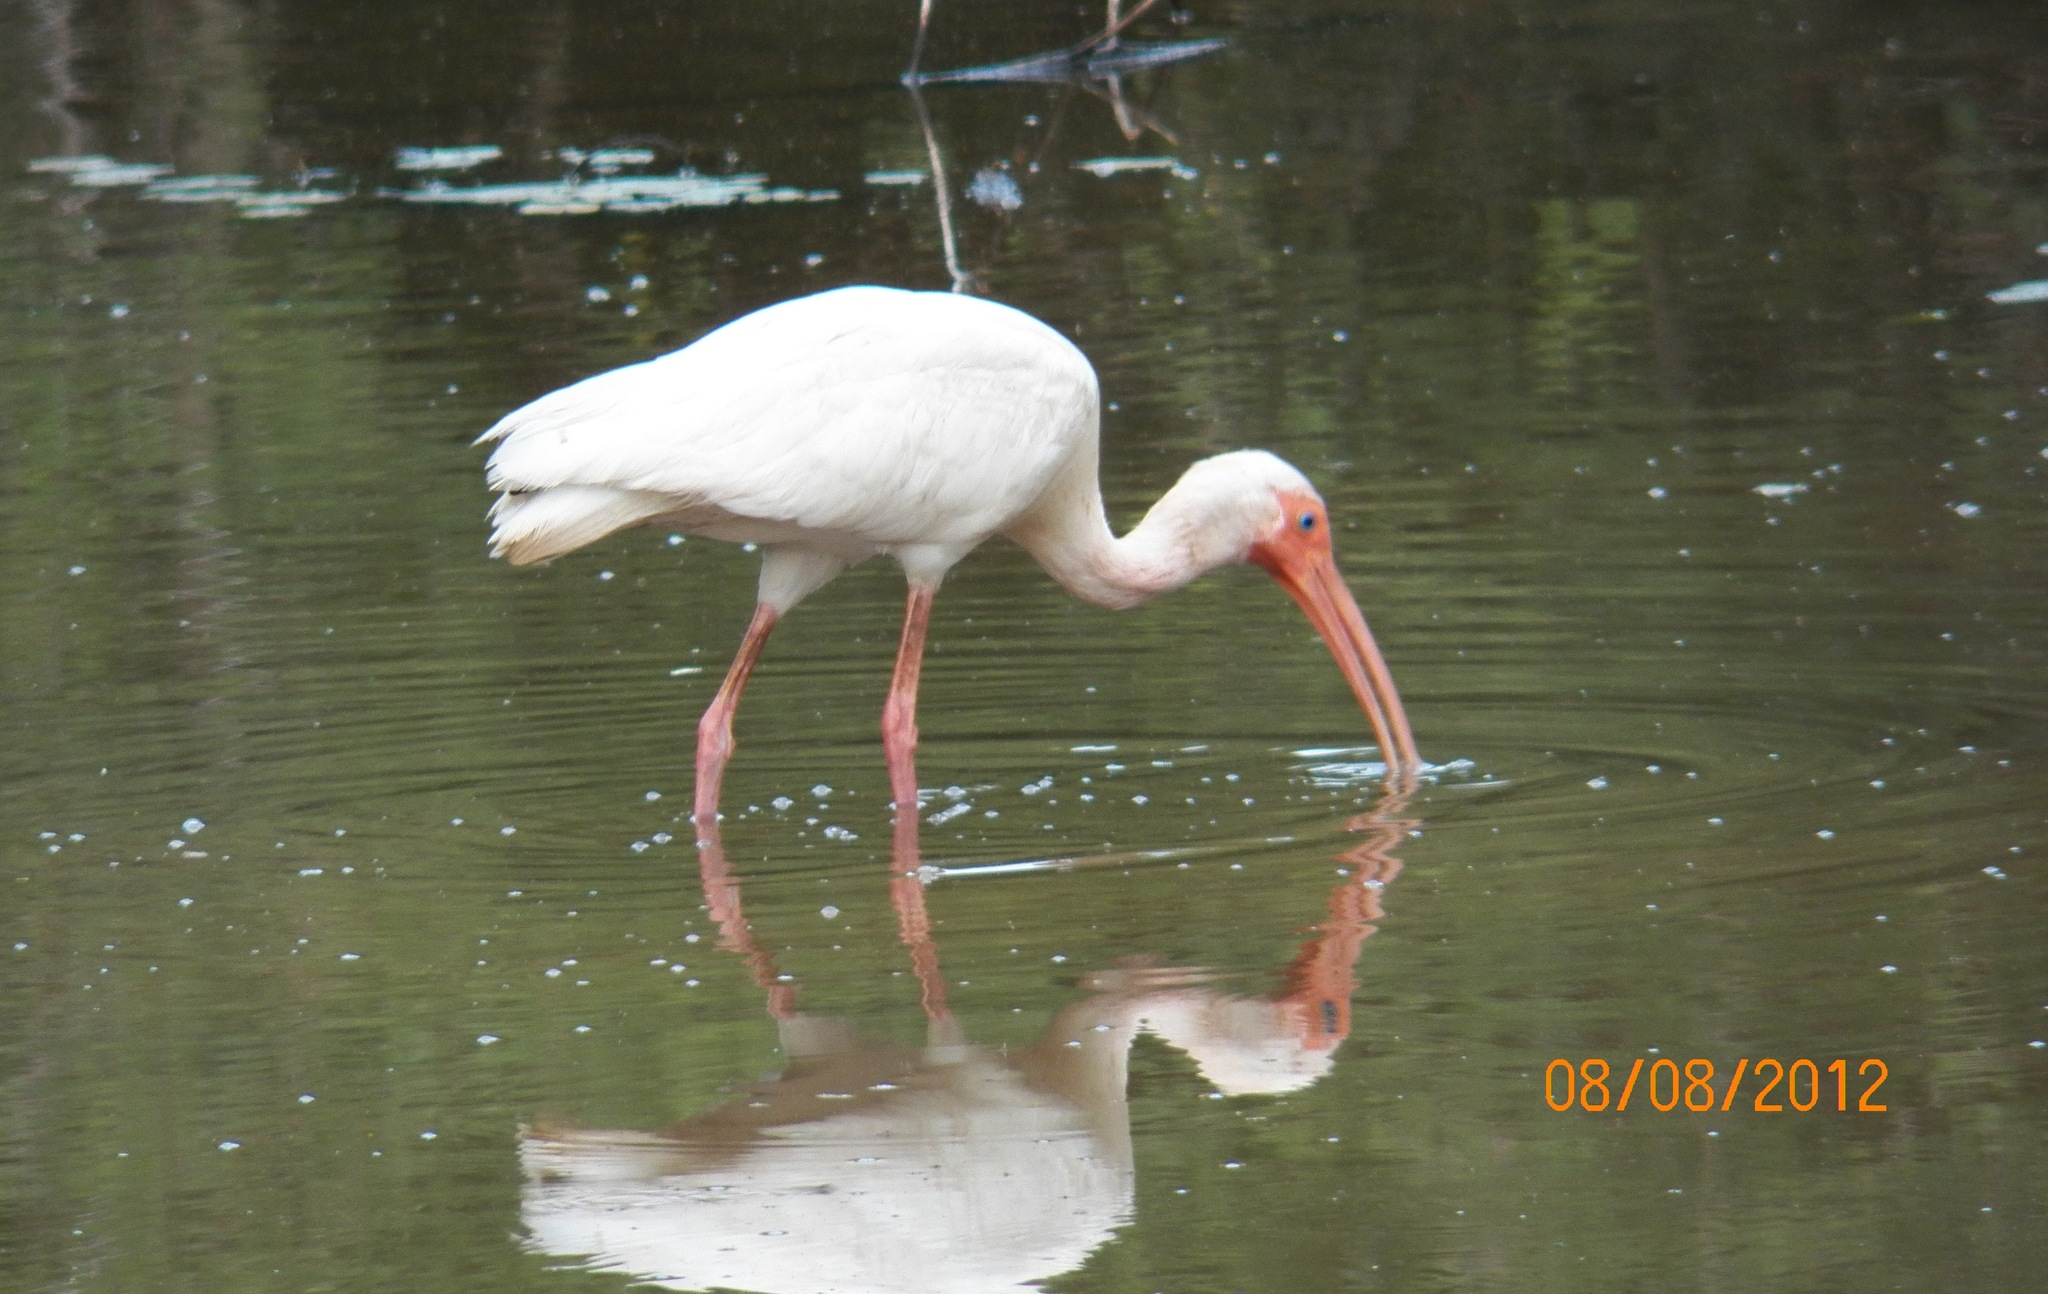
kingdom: Animalia
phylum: Chordata
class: Aves
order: Pelecaniformes
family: Threskiornithidae
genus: Eudocimus
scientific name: Eudocimus albus
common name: White ibis
